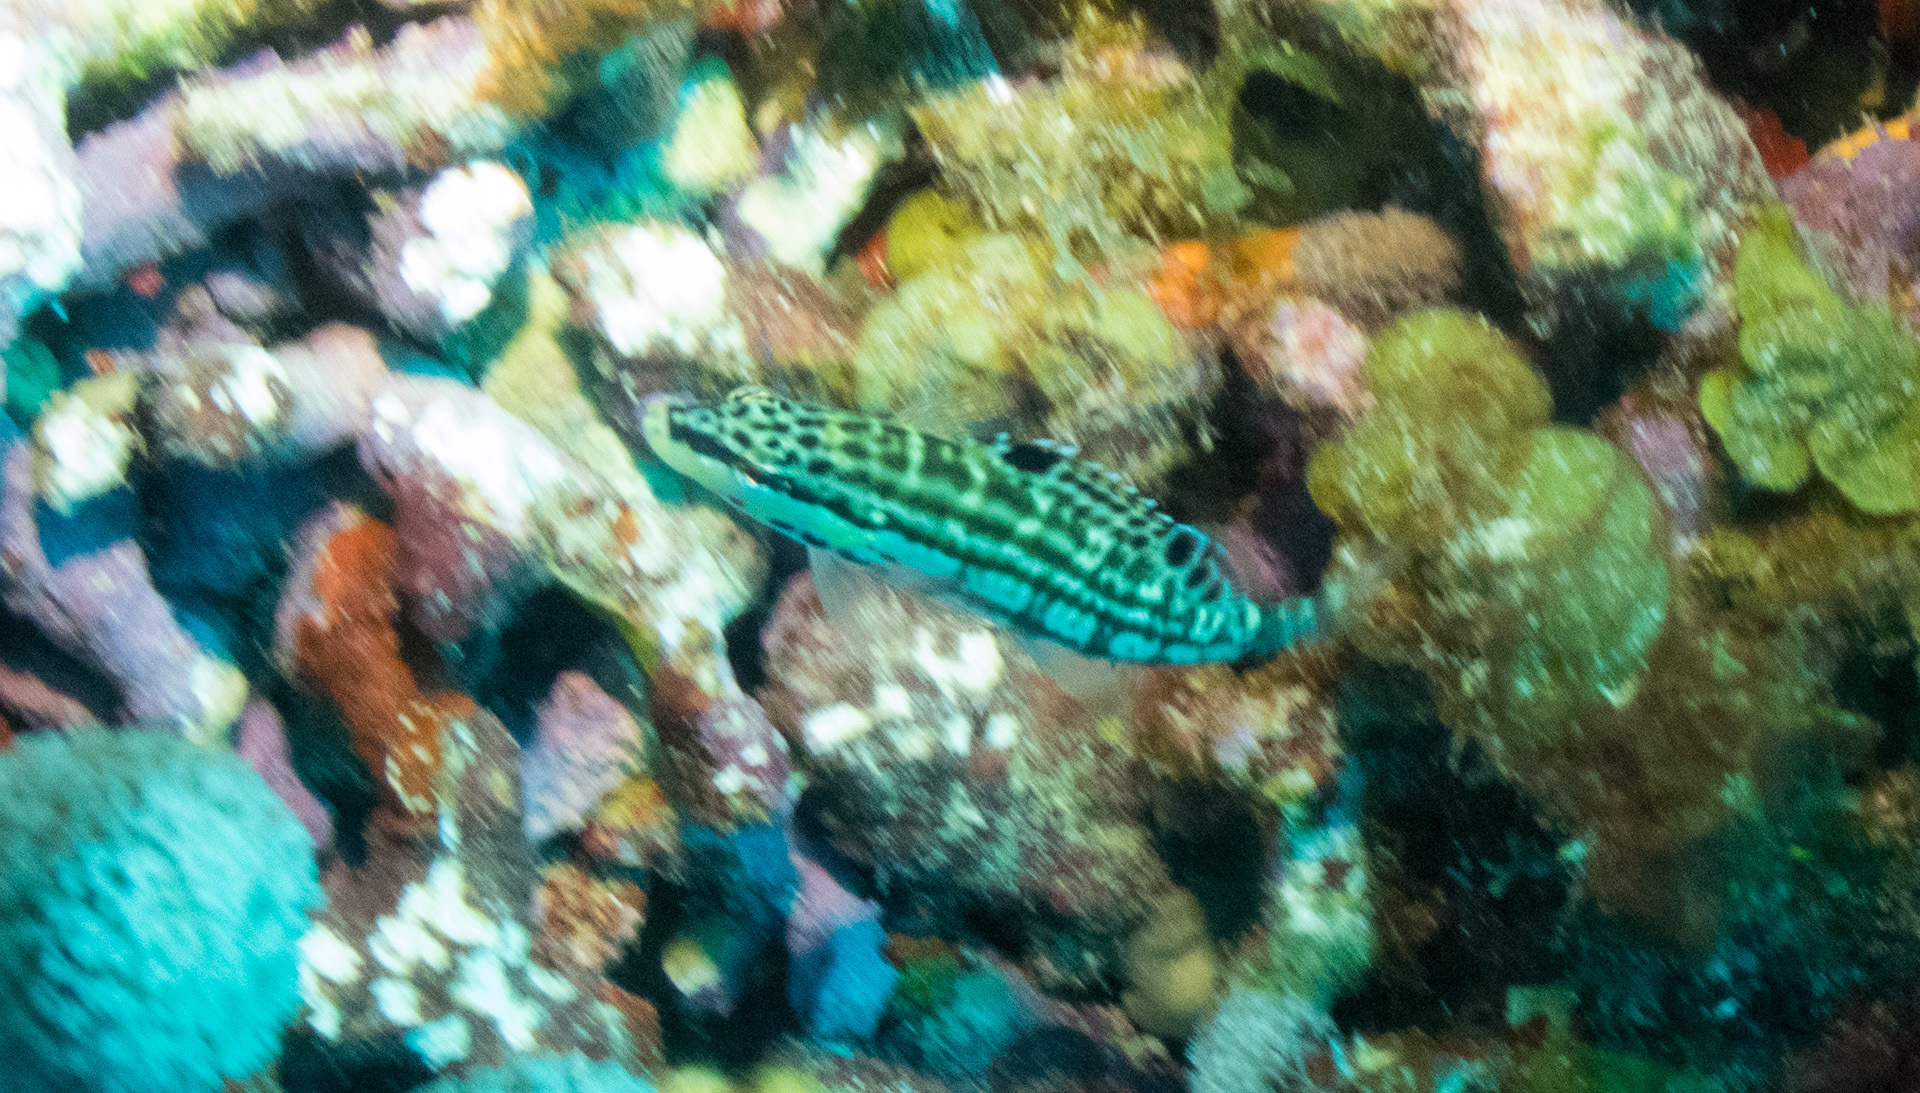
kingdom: Animalia
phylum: Chordata
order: Perciformes
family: Serranidae
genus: Serranus
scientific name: Serranus tigrinus
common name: Harlequin bass
